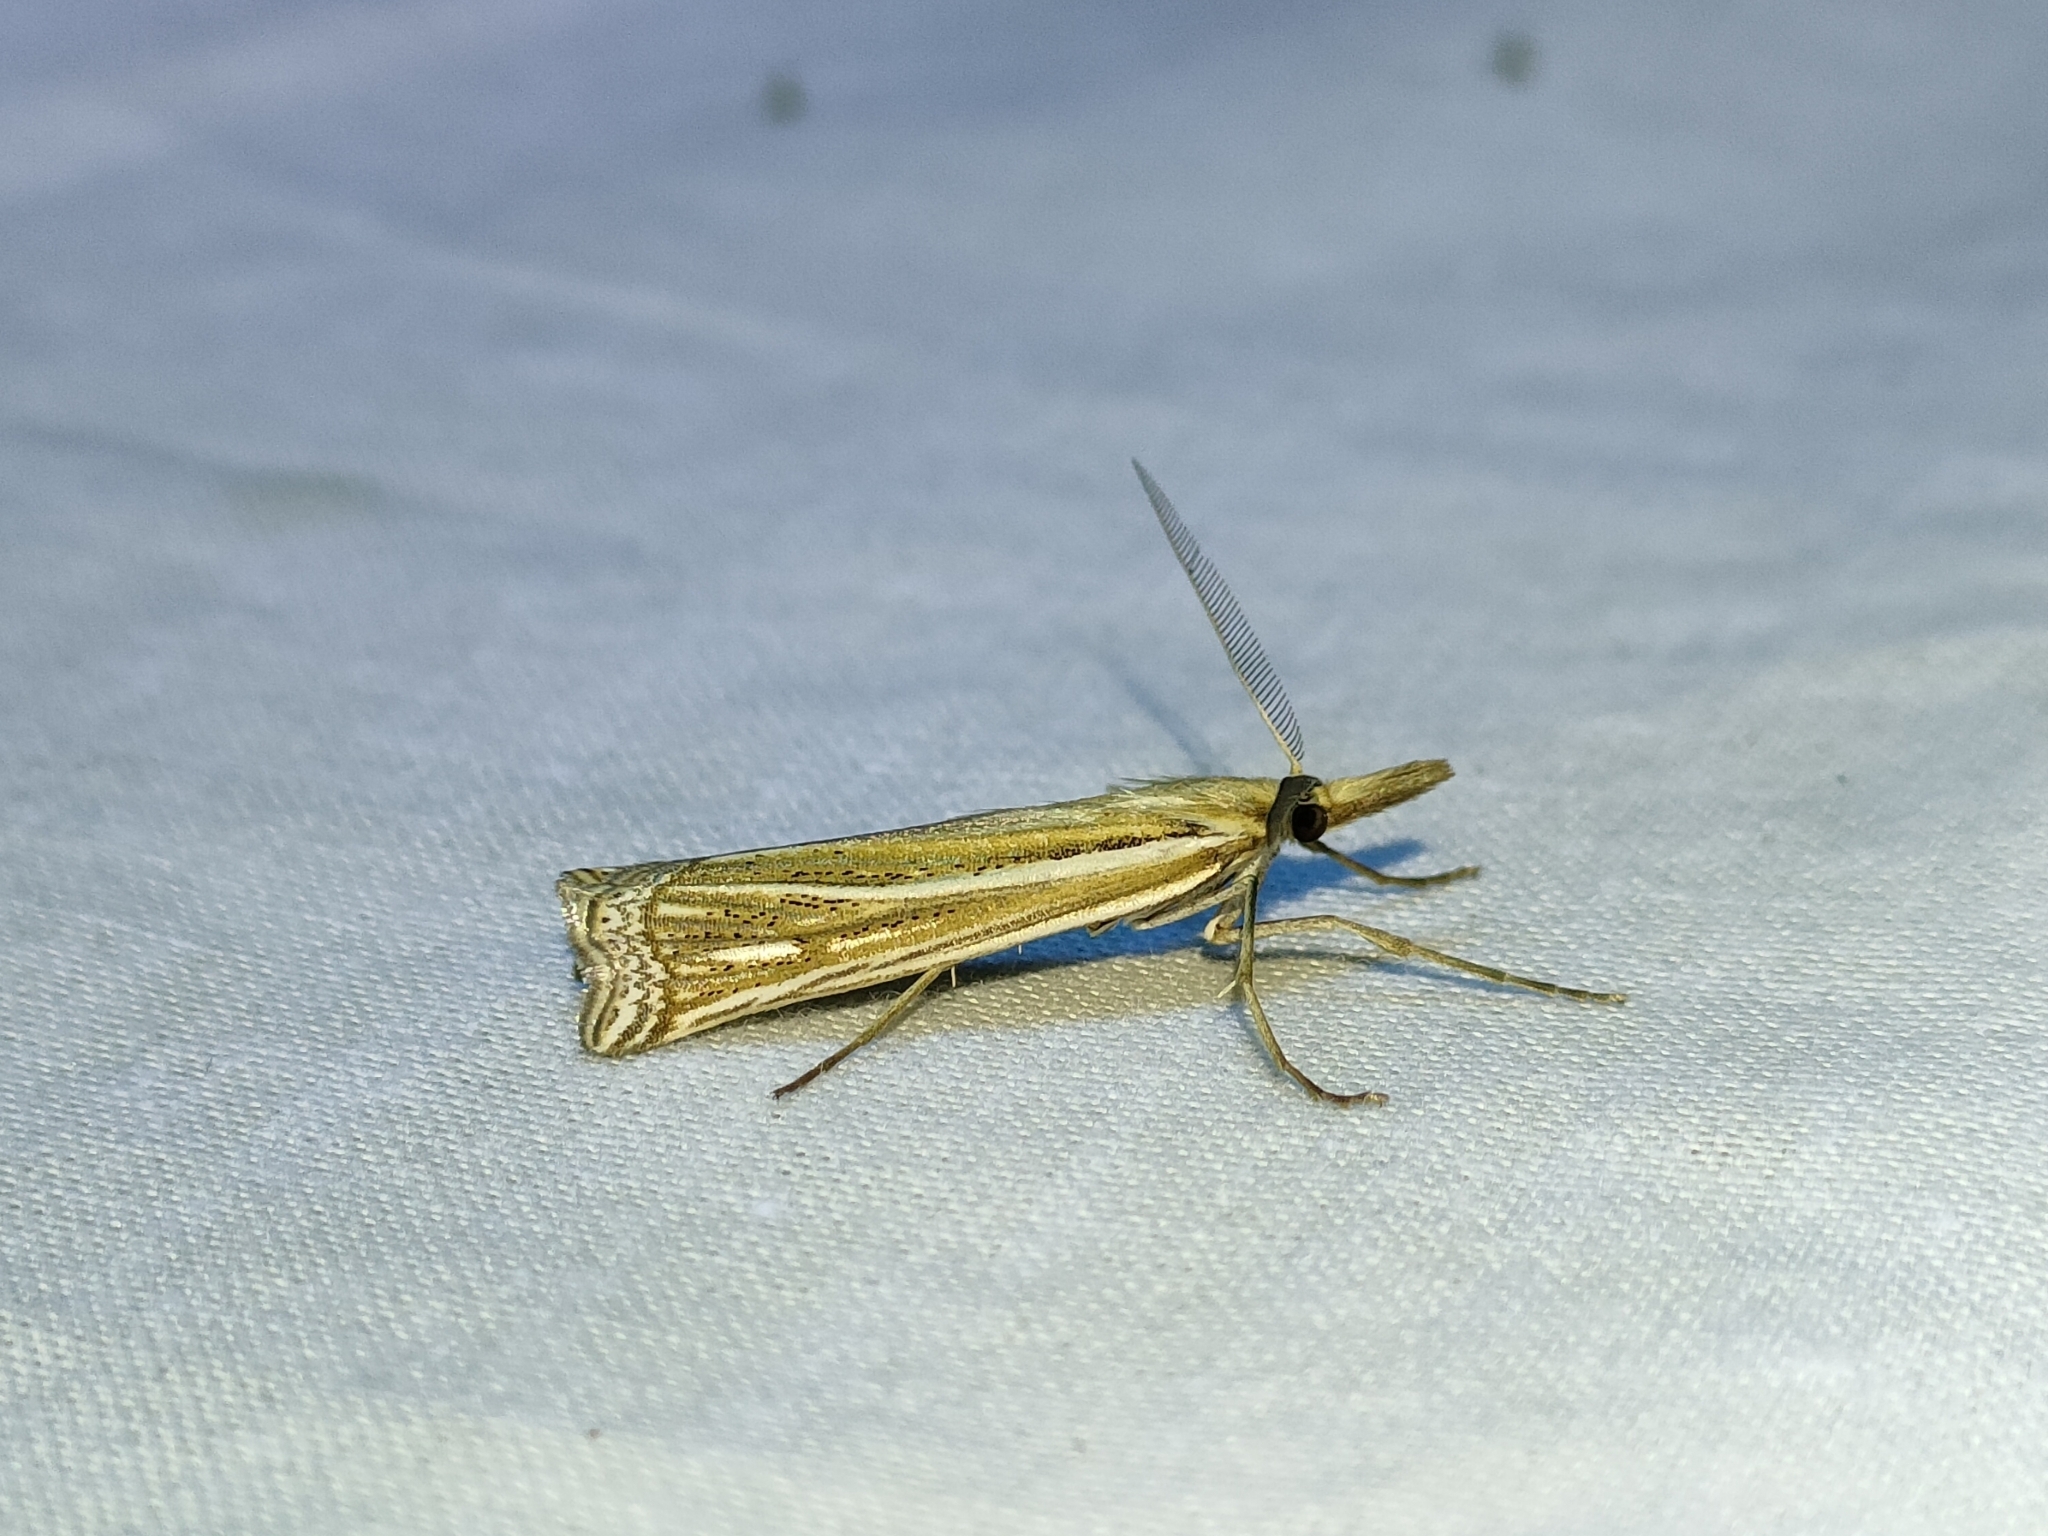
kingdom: Animalia
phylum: Arthropoda
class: Insecta
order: Lepidoptera
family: Crambidae
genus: Ancylolomia
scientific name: Ancylolomia palpella
